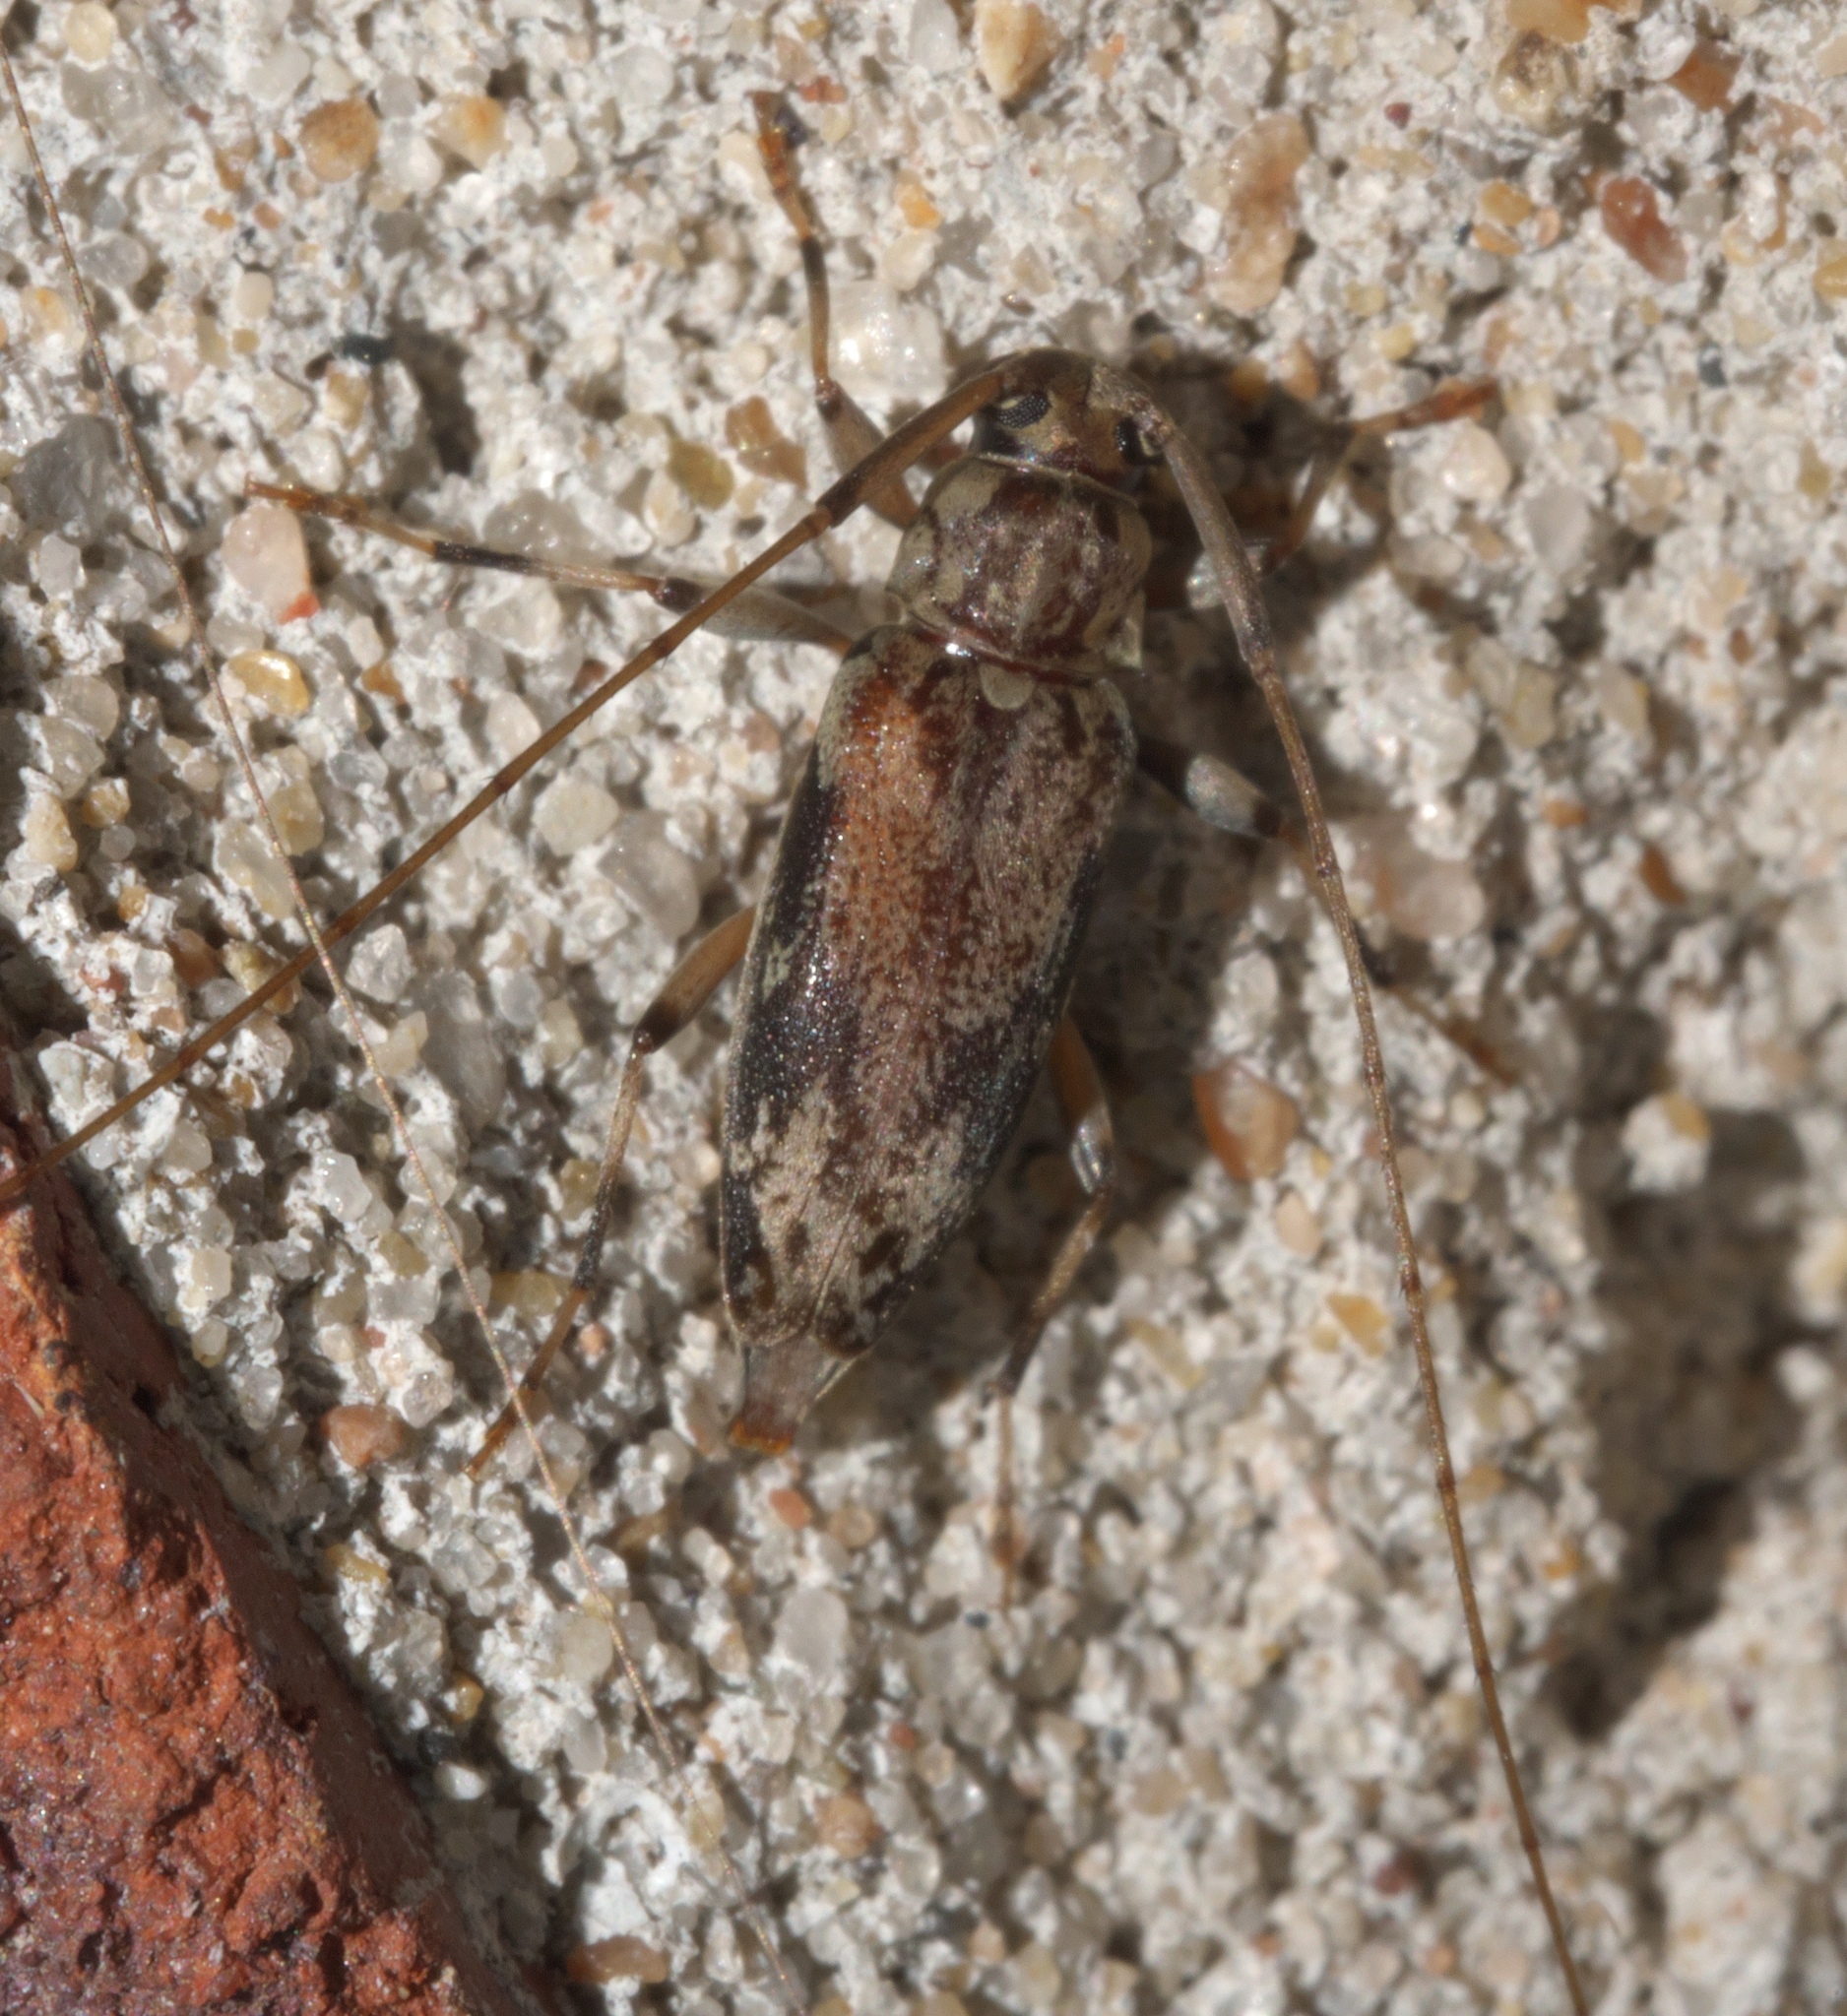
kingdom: Animalia
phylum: Arthropoda
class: Insecta
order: Coleoptera
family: Cerambycidae
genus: Lepturges
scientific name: Lepturges angulatus
